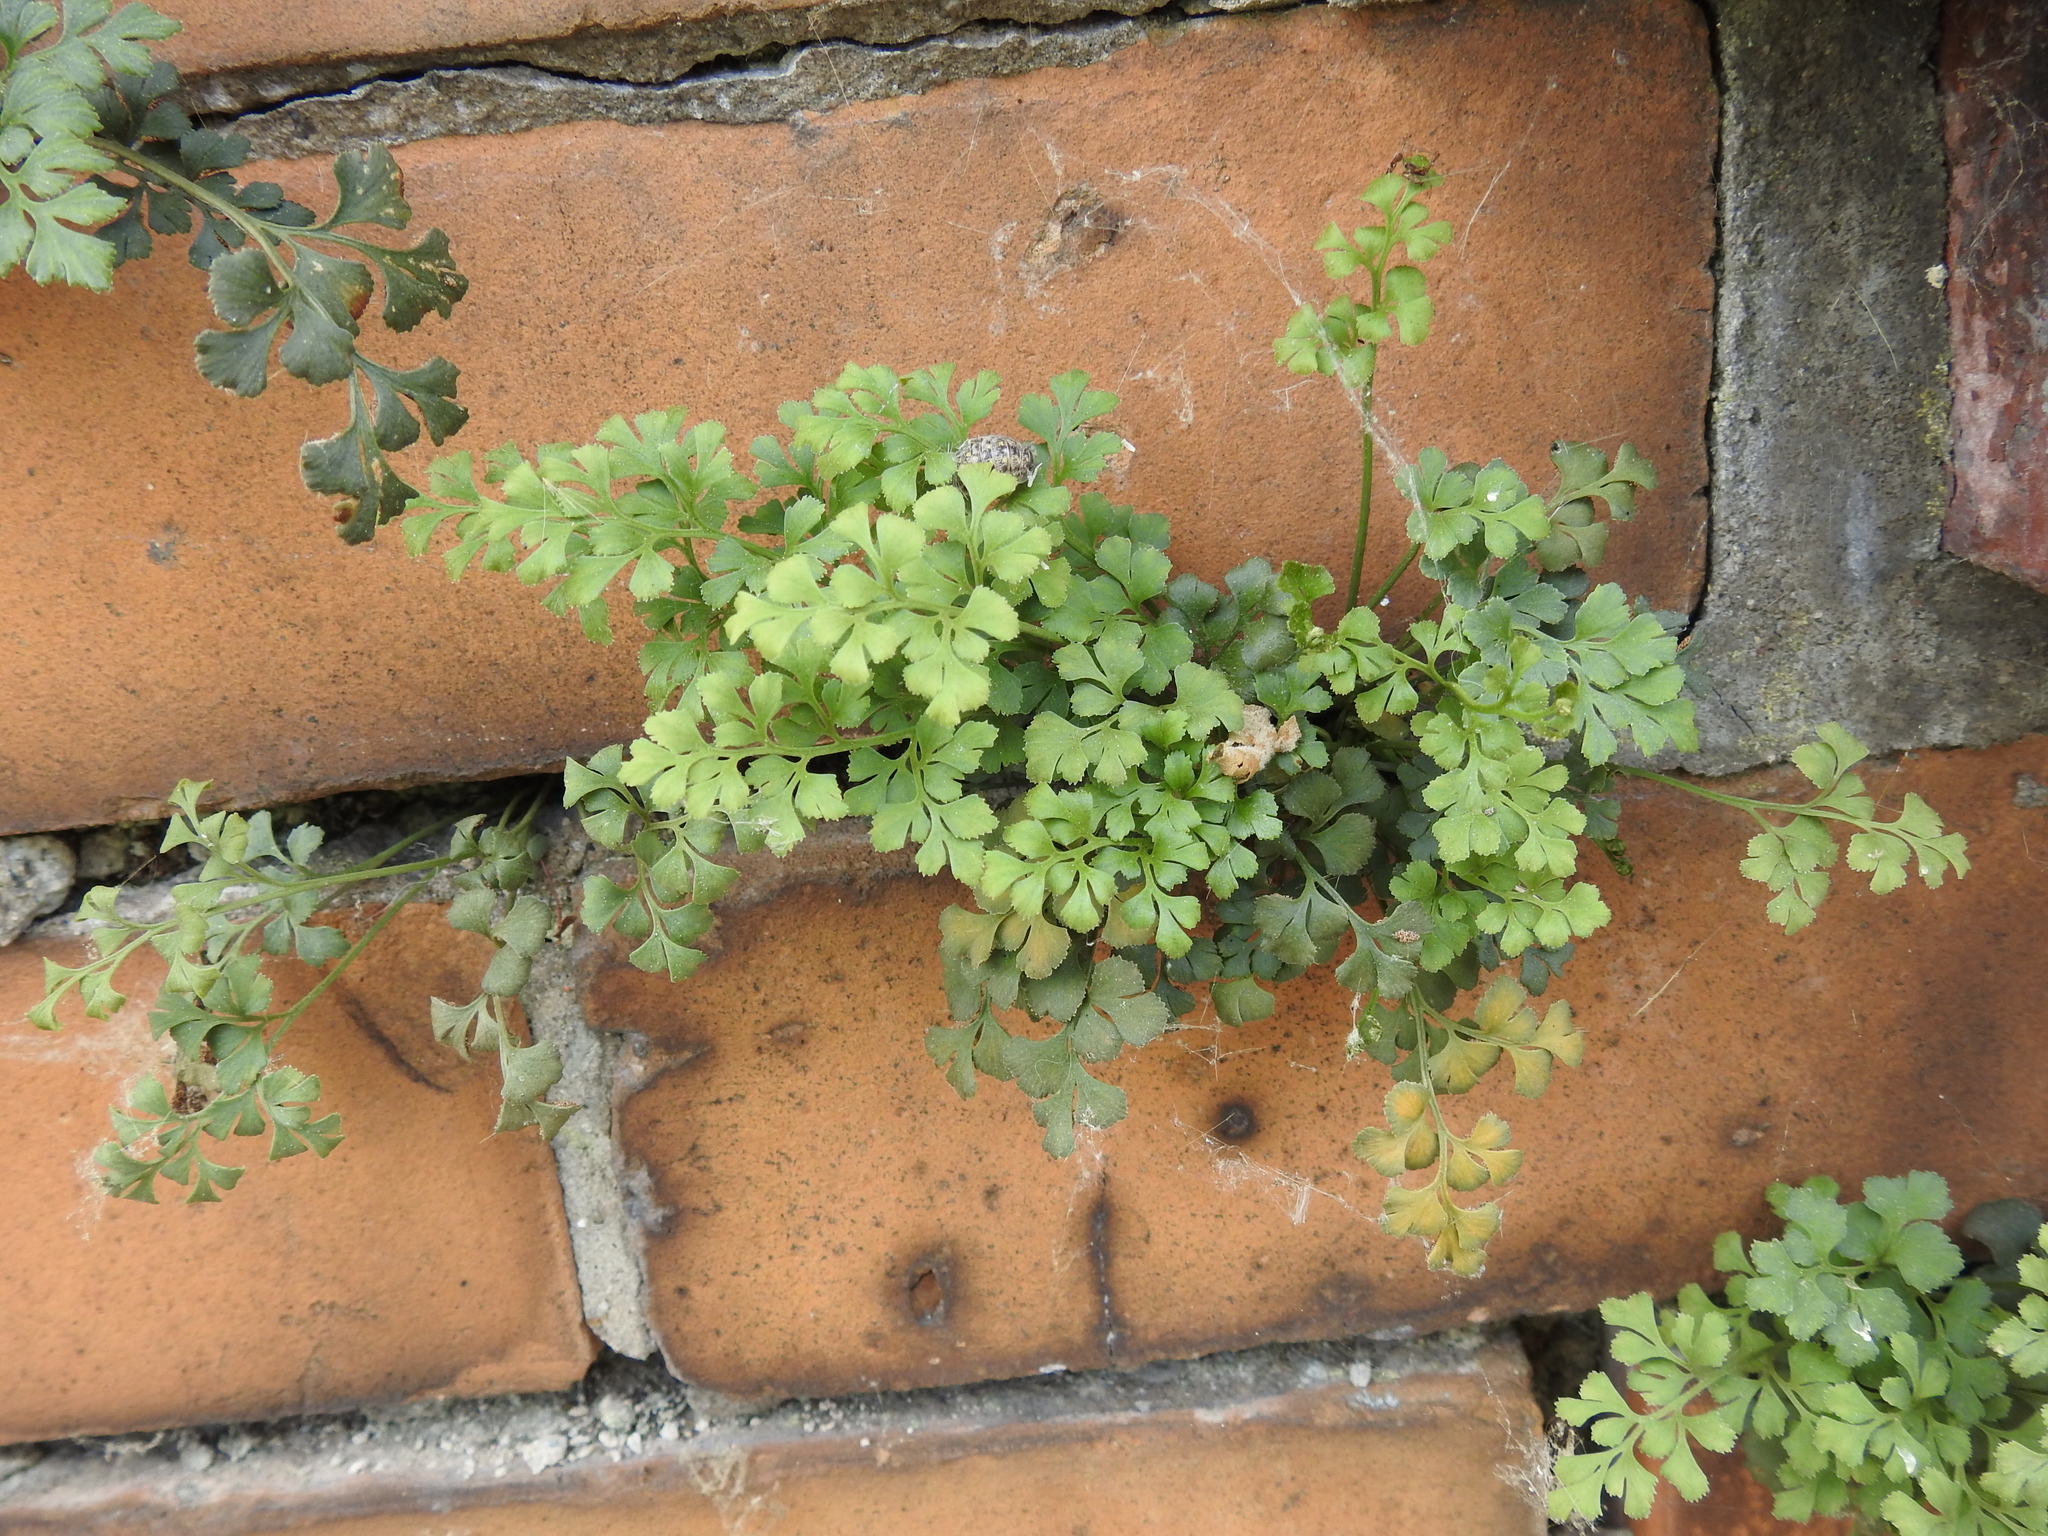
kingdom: Plantae
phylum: Tracheophyta
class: Polypodiopsida
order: Polypodiales
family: Aspleniaceae
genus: Asplenium
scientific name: Asplenium ruta-muraria
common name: Wall-rue
